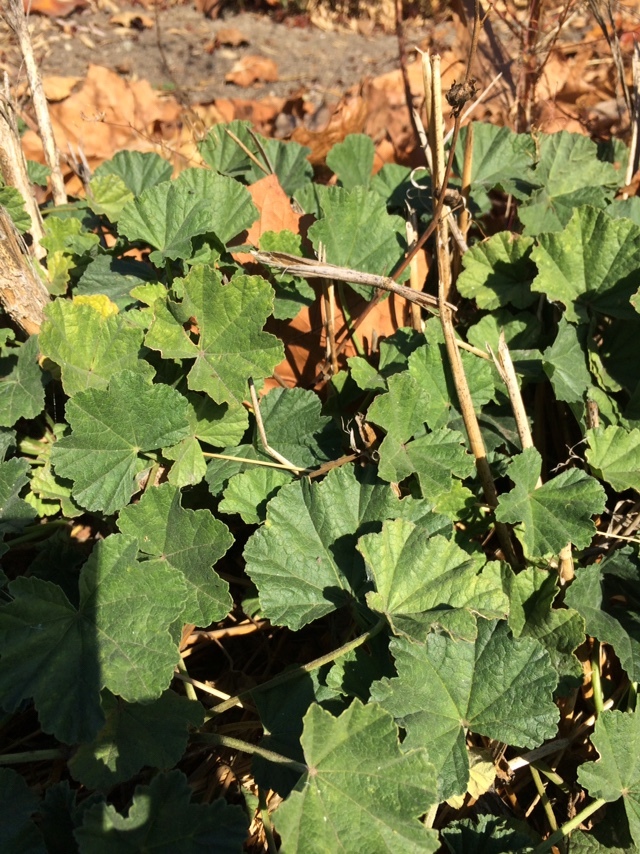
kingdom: Plantae
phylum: Tracheophyta
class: Magnoliopsida
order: Malvales
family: Malvaceae
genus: Malva
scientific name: Malva
